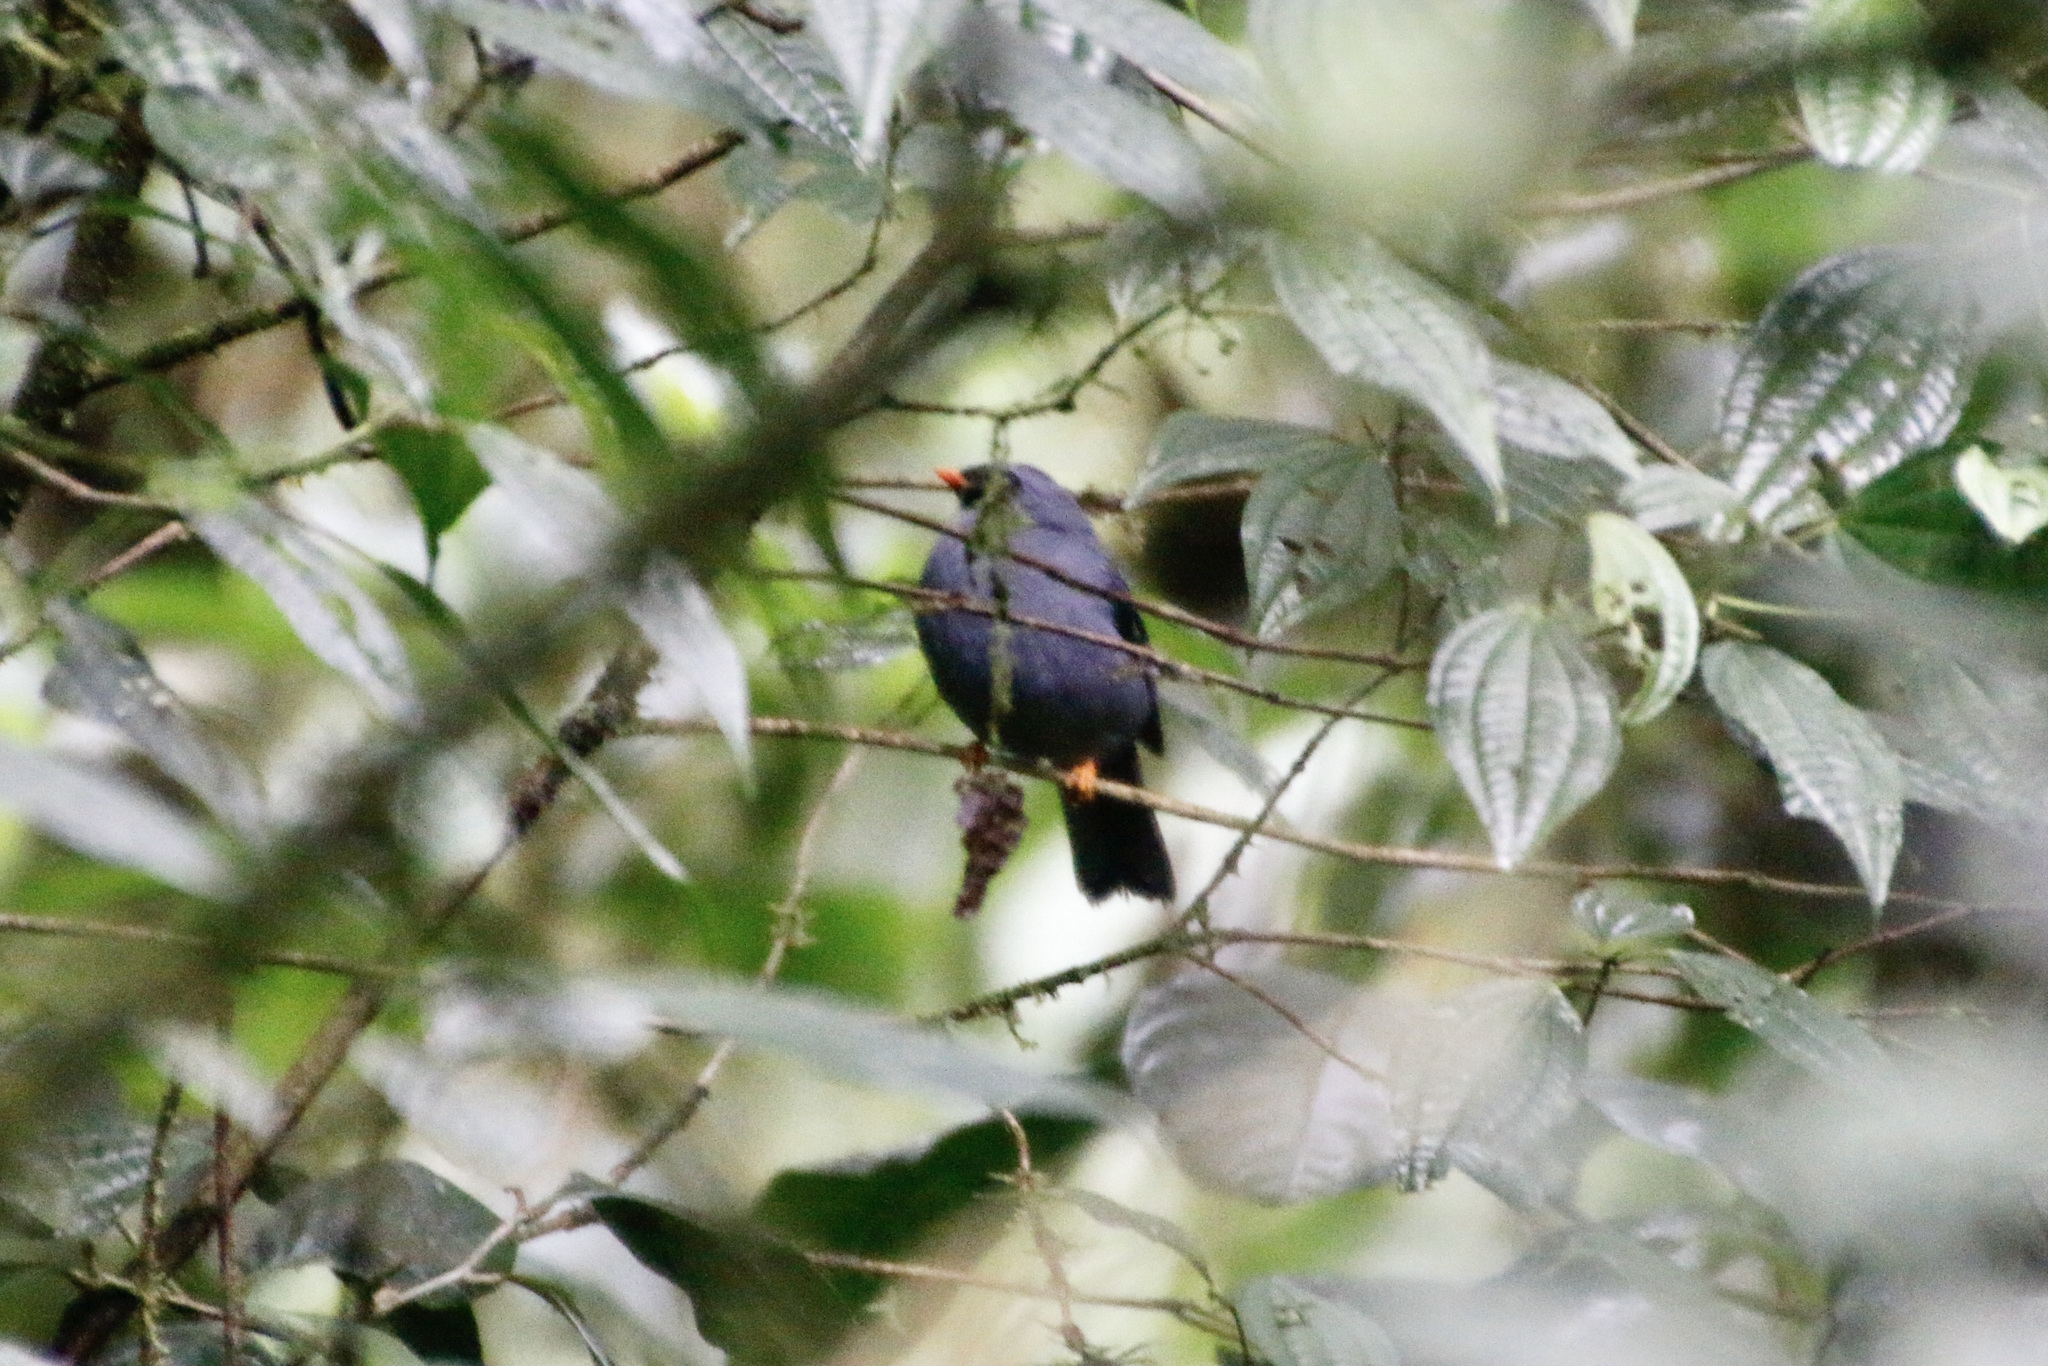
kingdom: Animalia
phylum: Chordata
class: Aves
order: Passeriformes
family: Turdidae
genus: Myadestes
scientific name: Myadestes melanops
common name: Black-faced solitaire
